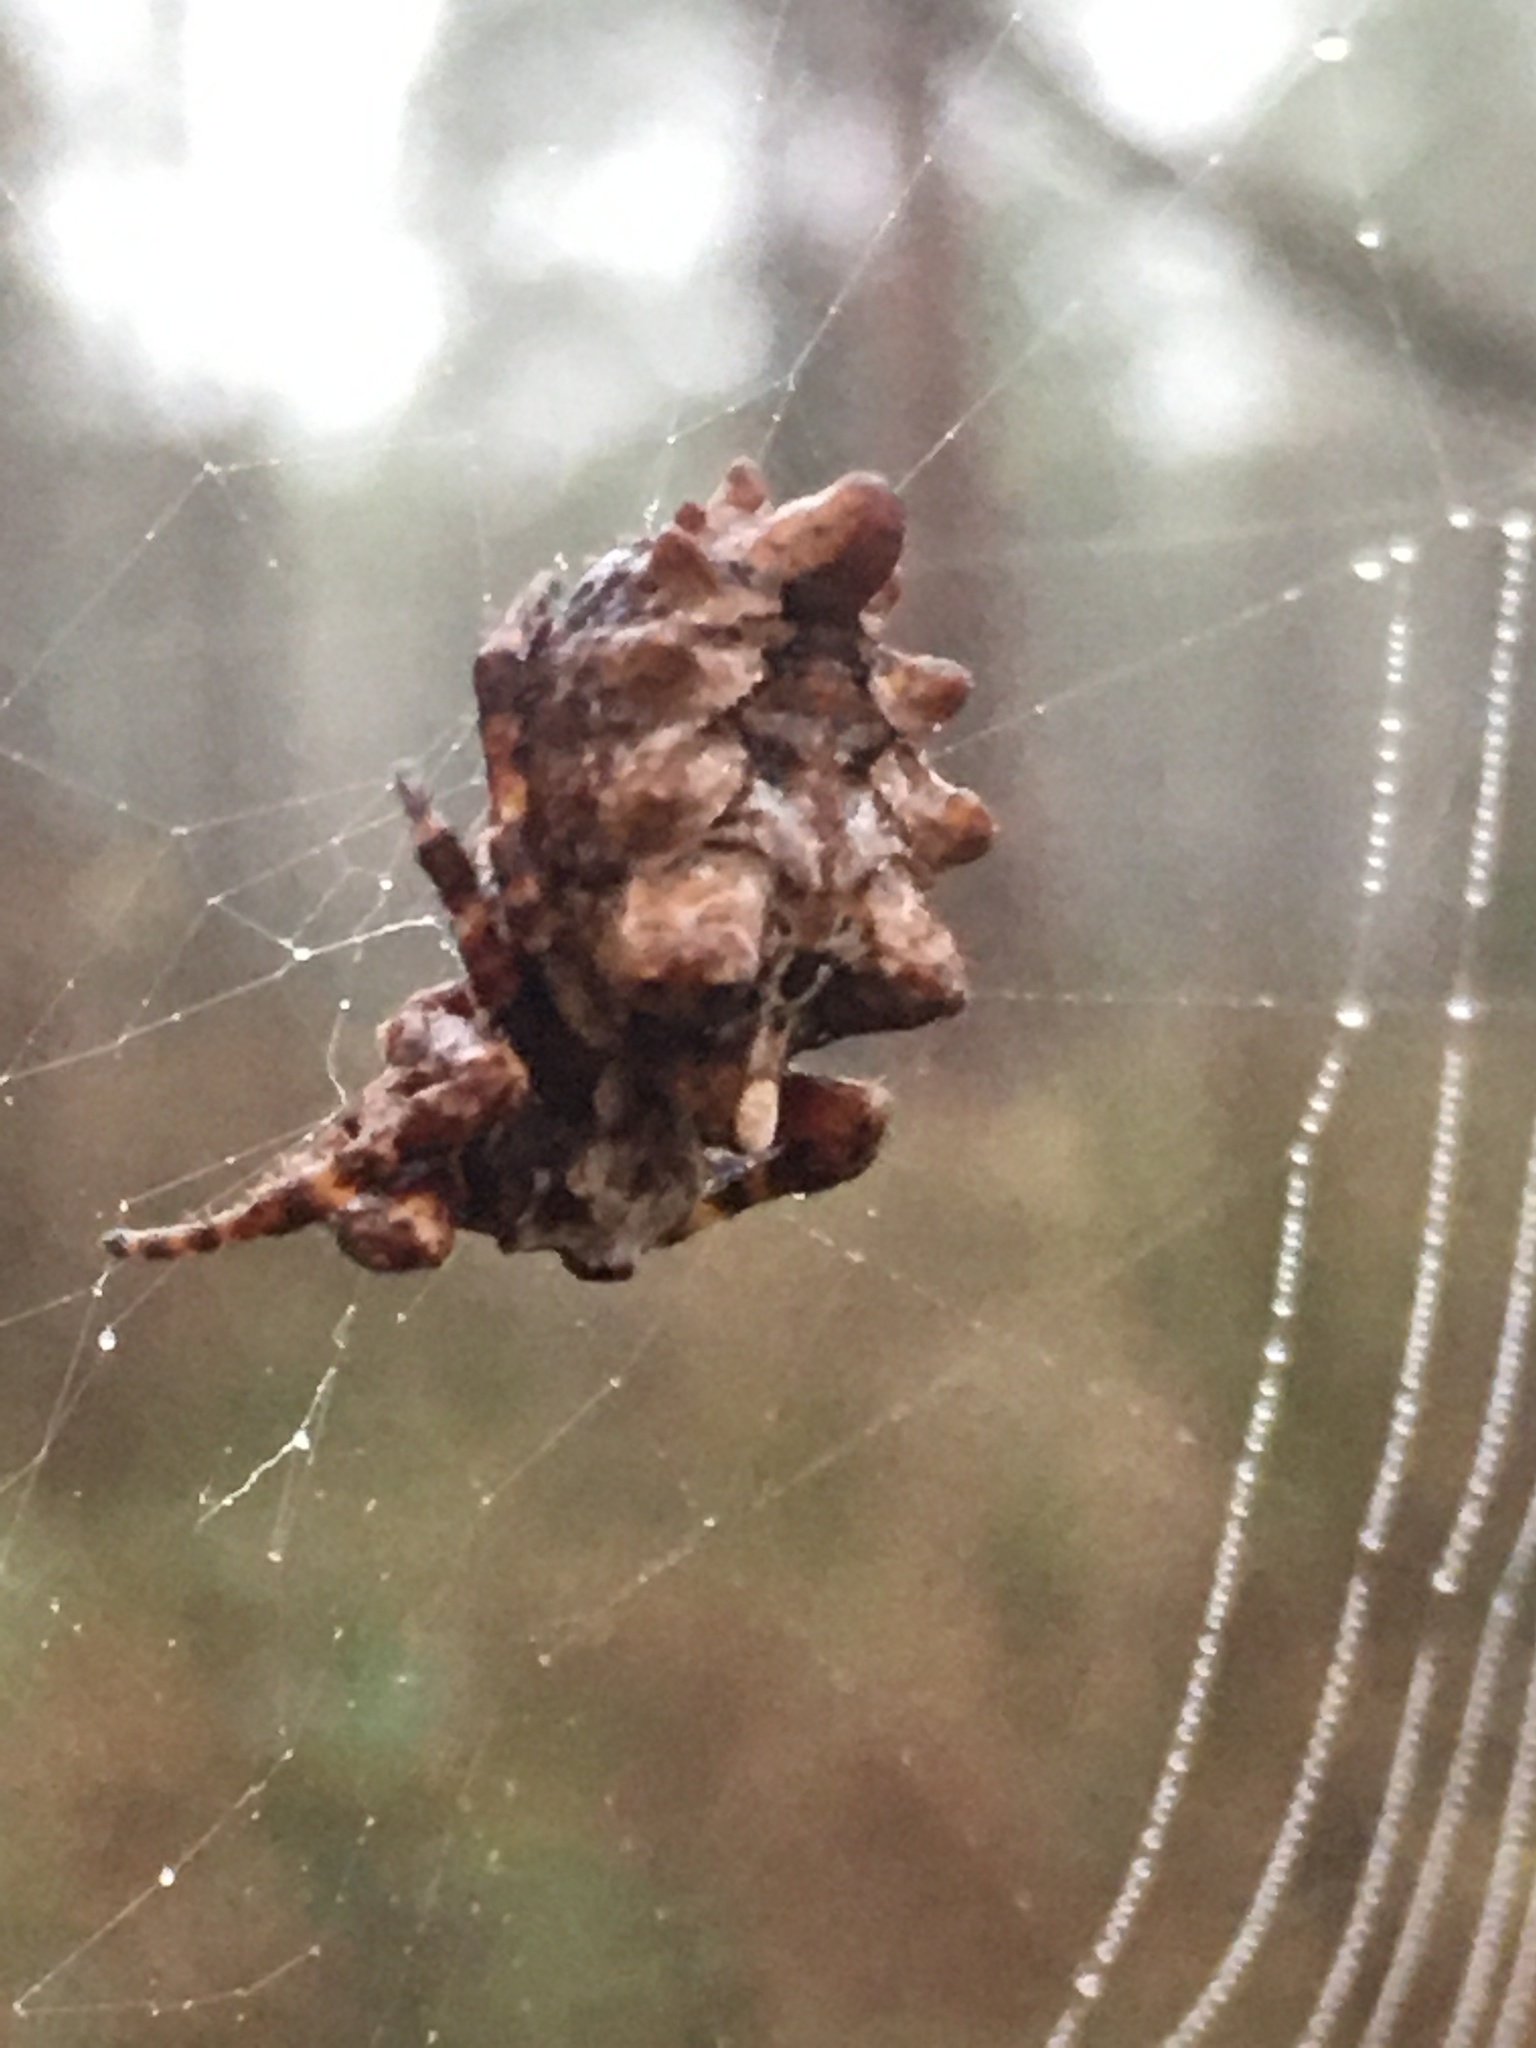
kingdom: Animalia
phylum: Arthropoda
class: Arachnida
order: Araneae
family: Araneidae
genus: Acanthepeira
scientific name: Acanthepeira marion
